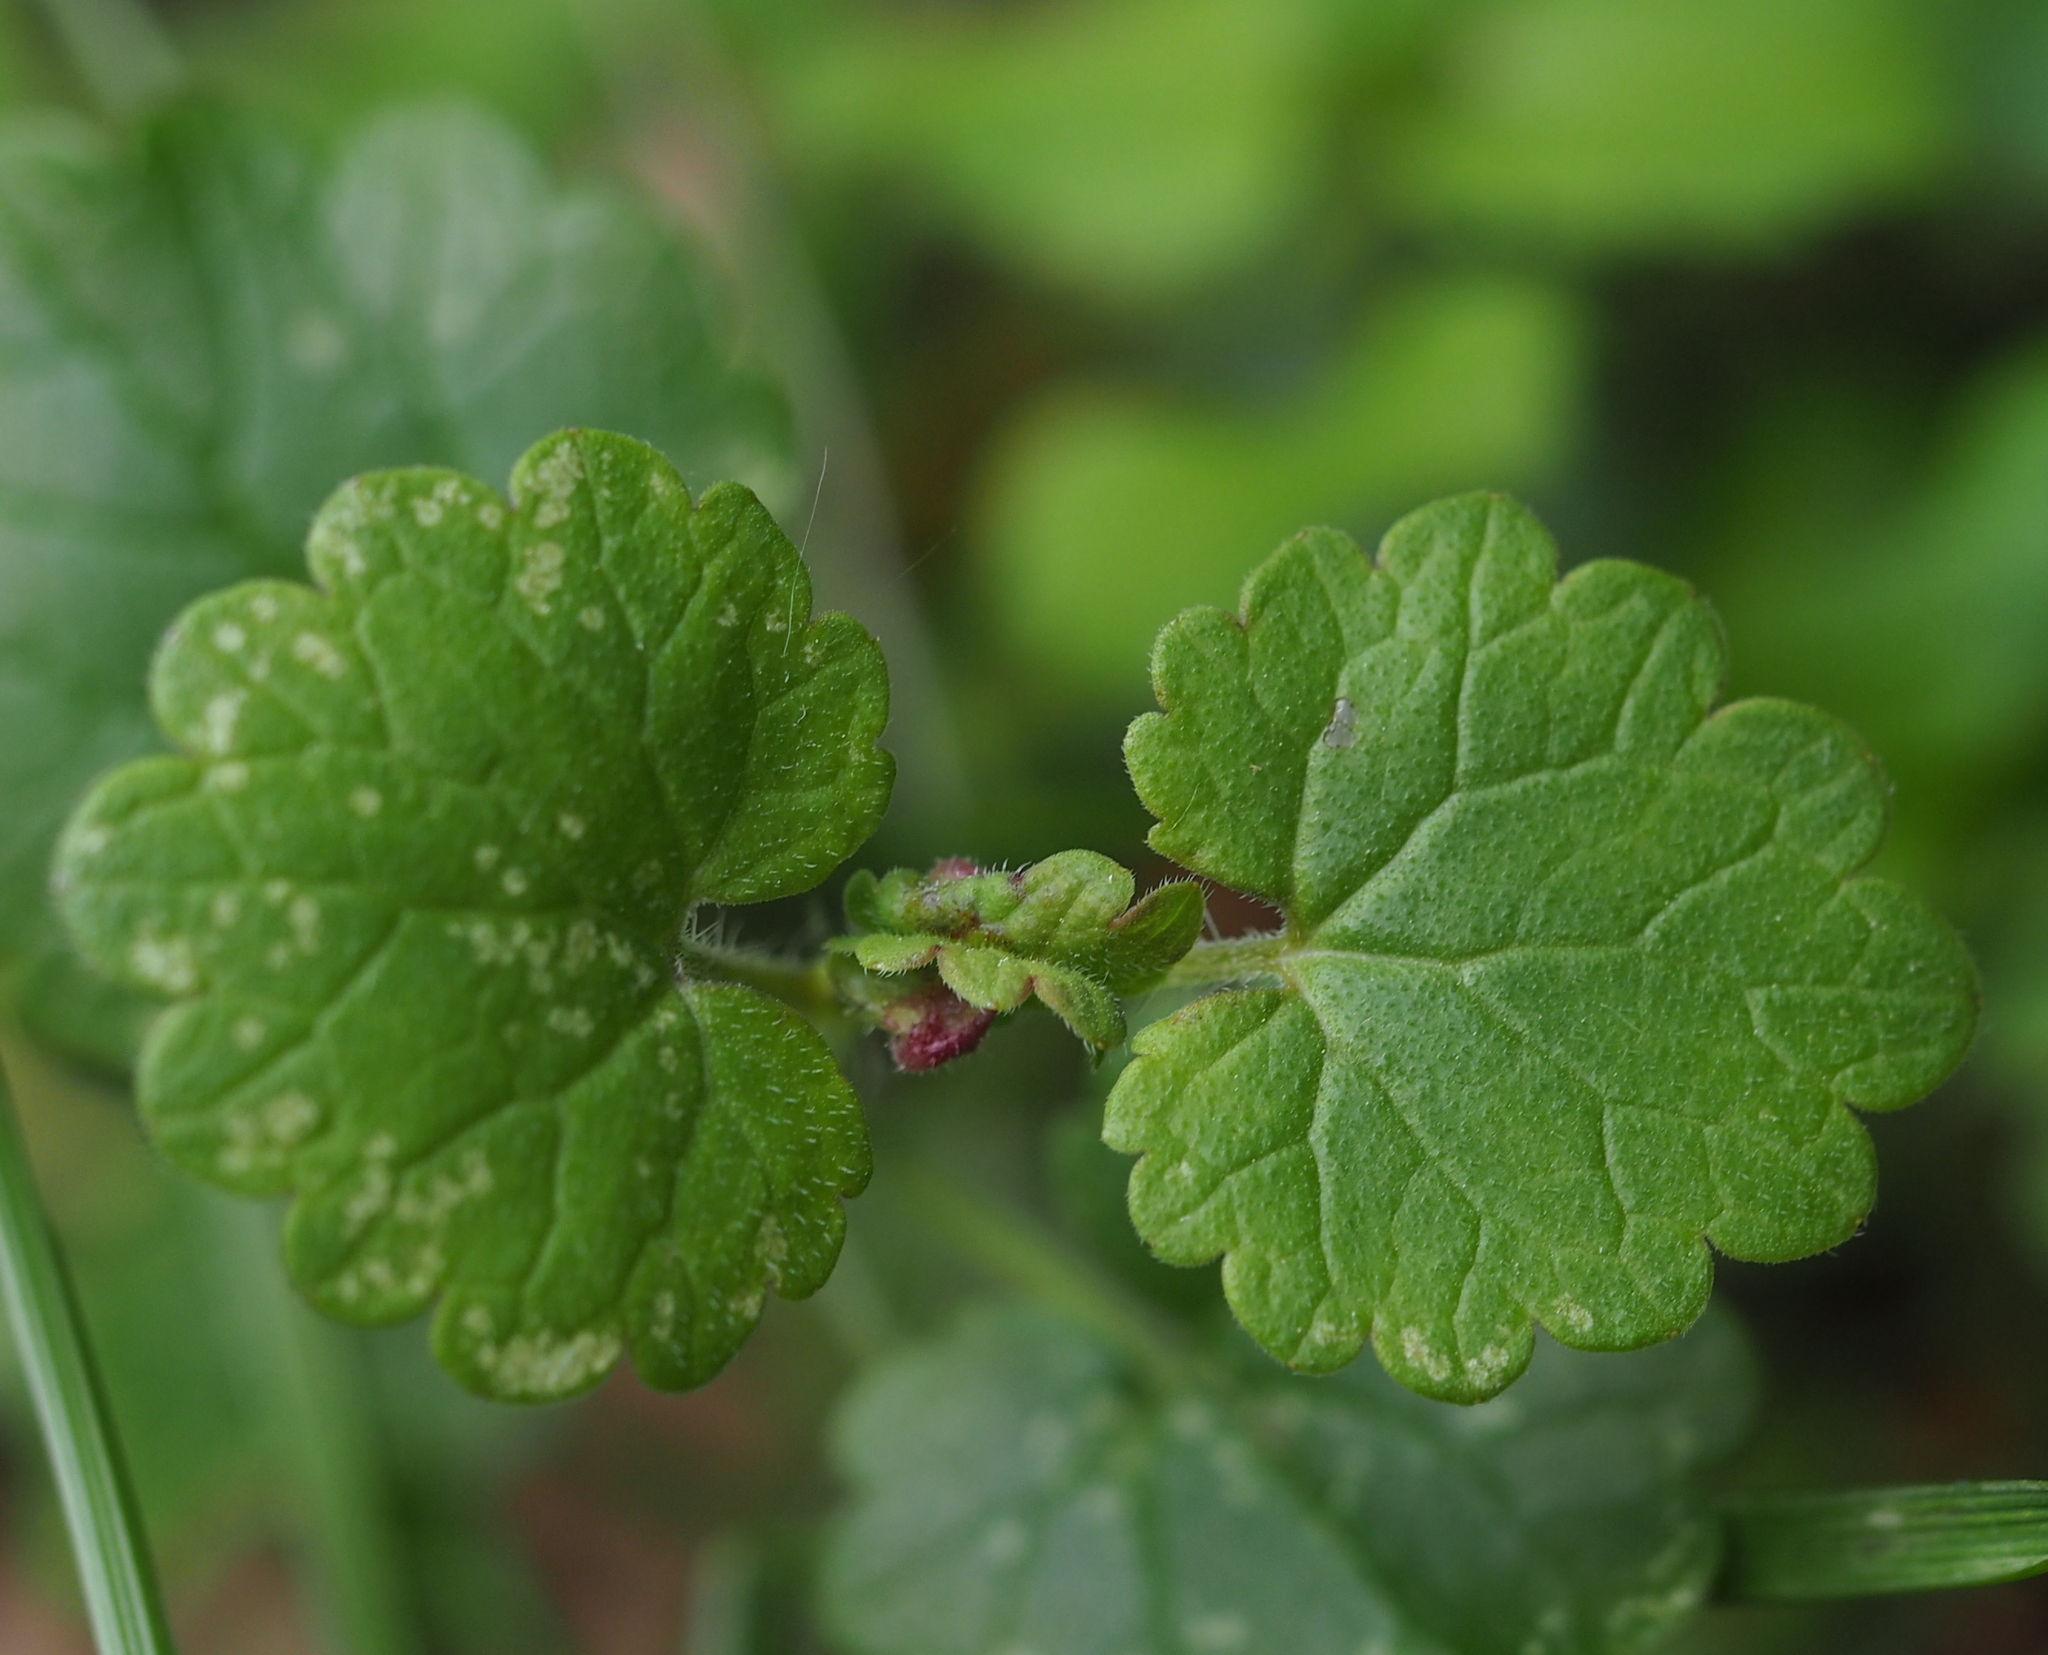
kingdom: Animalia
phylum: Arthropoda
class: Insecta
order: Diptera
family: Cecidomyiidae
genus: Dasineura
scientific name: Dasineura glechomae
